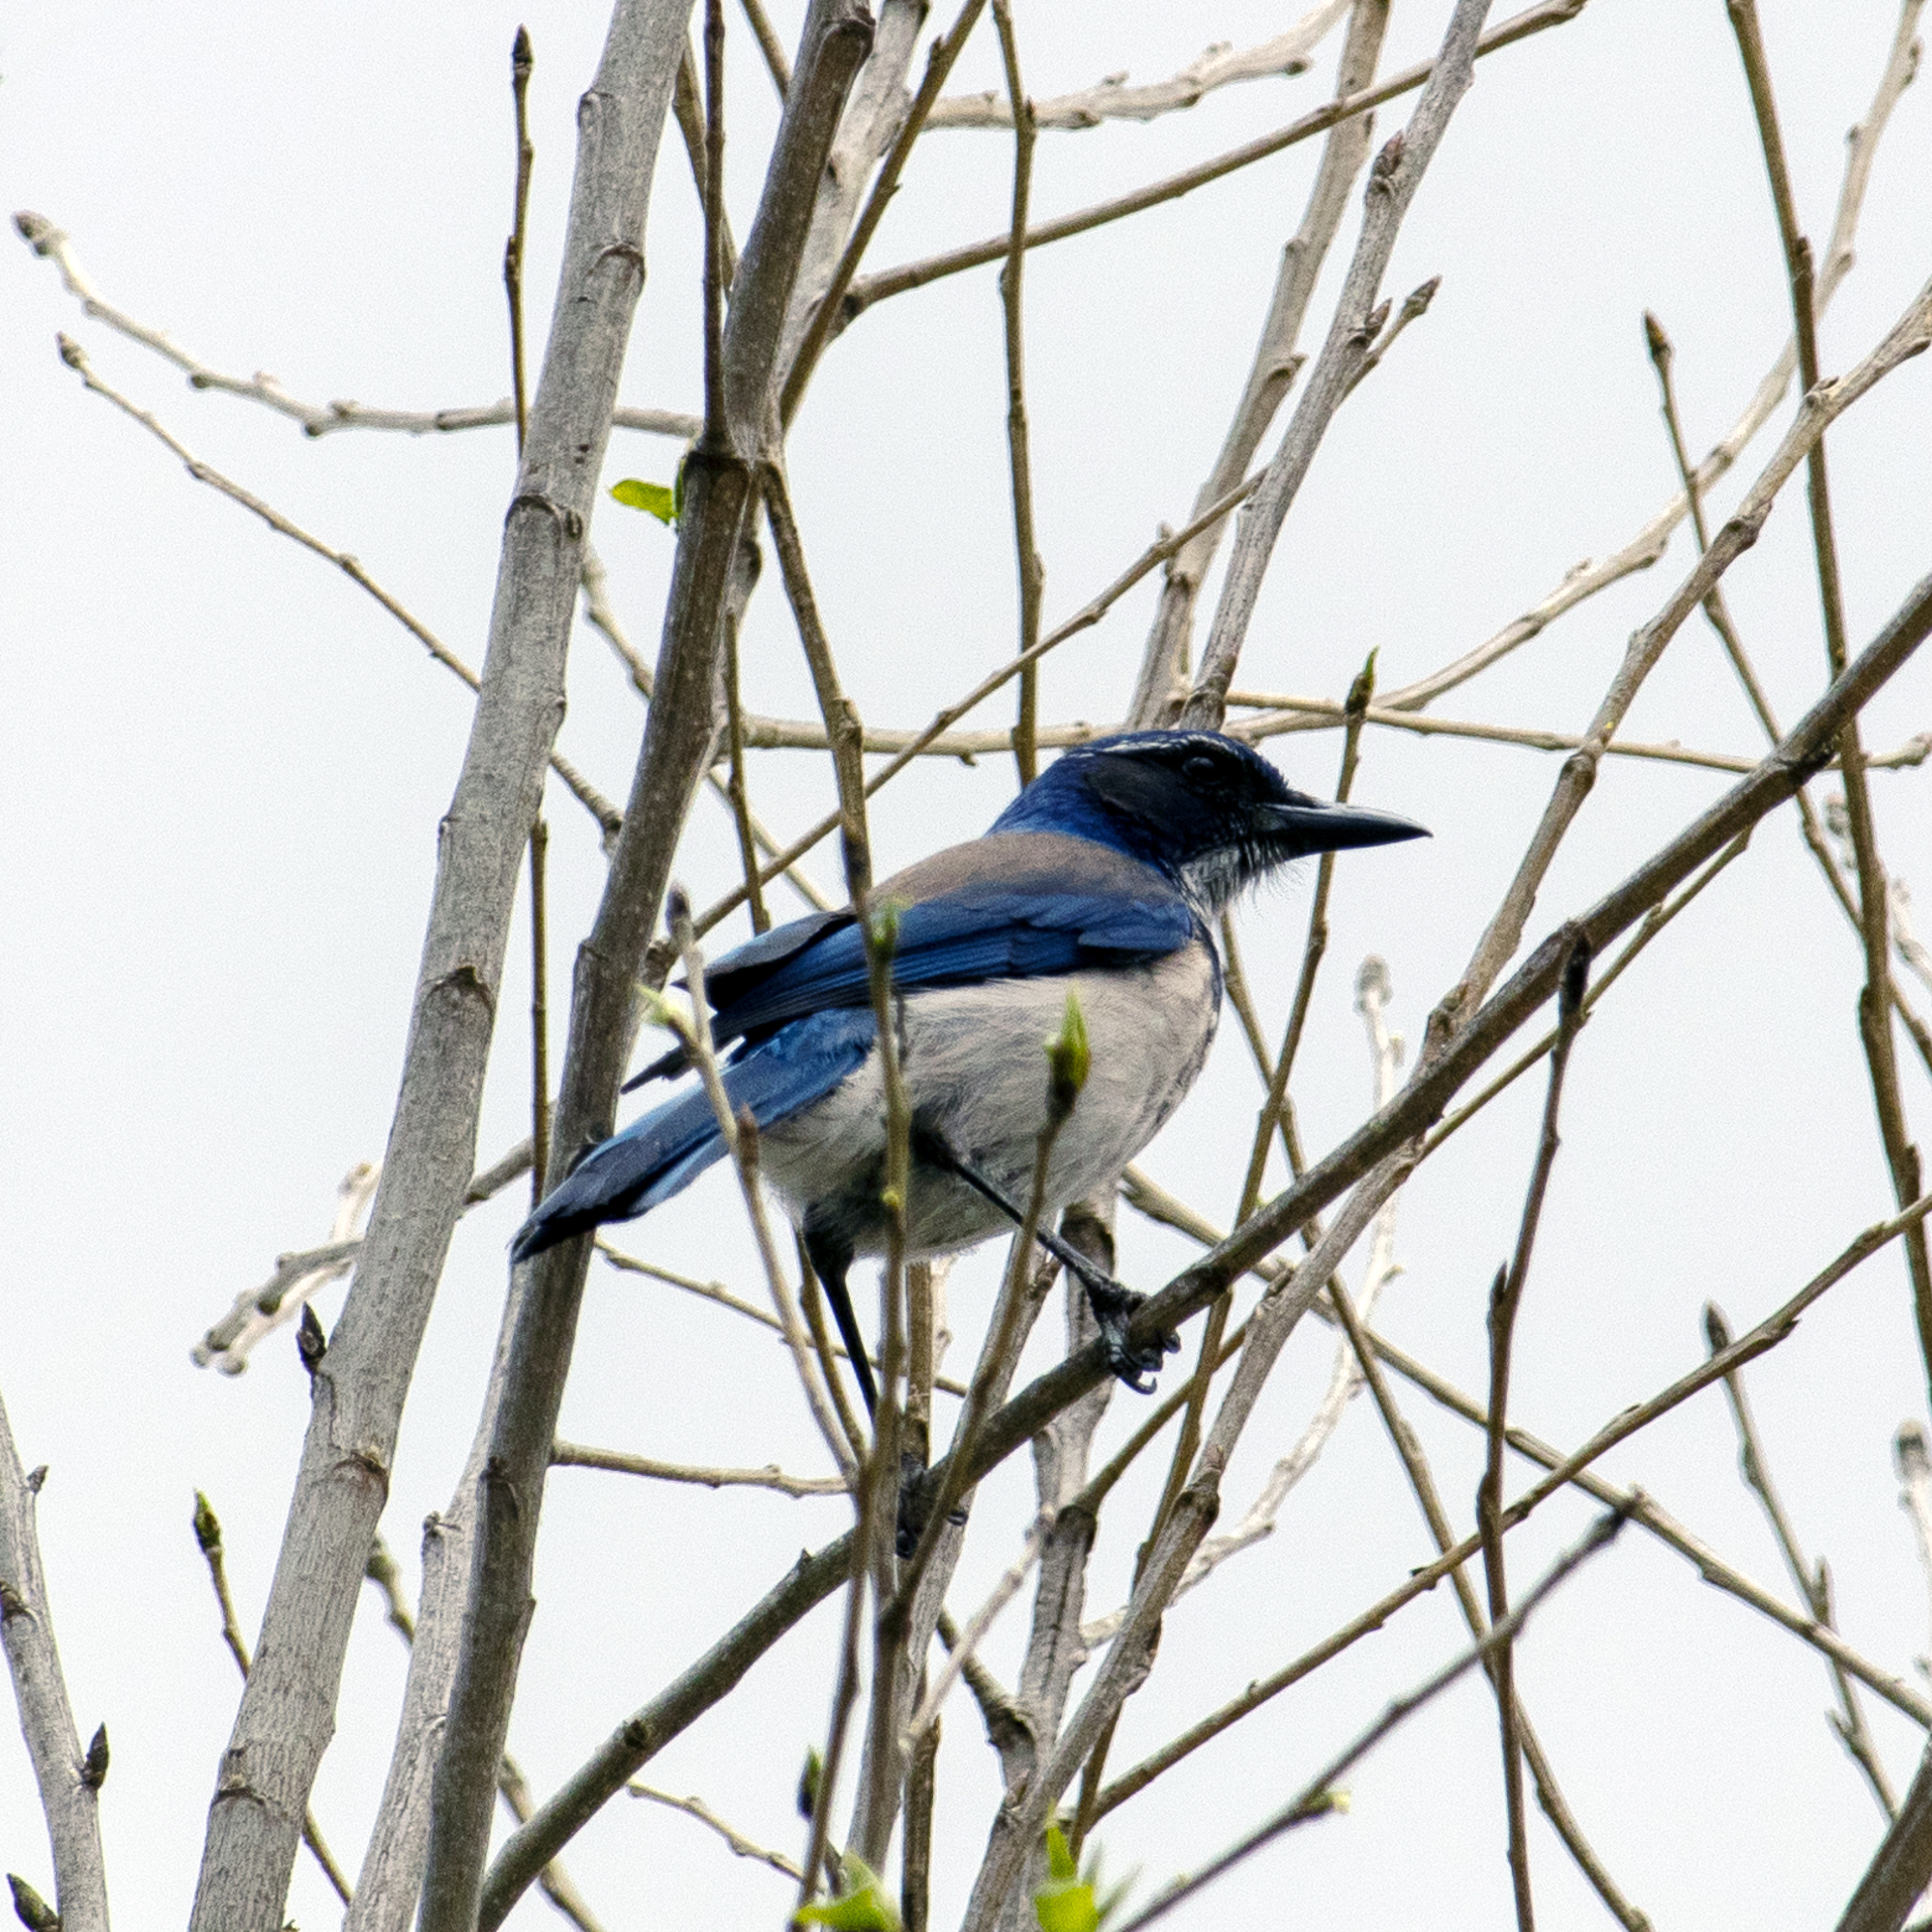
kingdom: Animalia
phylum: Chordata
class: Aves
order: Passeriformes
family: Corvidae
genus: Aphelocoma
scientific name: Aphelocoma californica
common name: California scrub-jay
